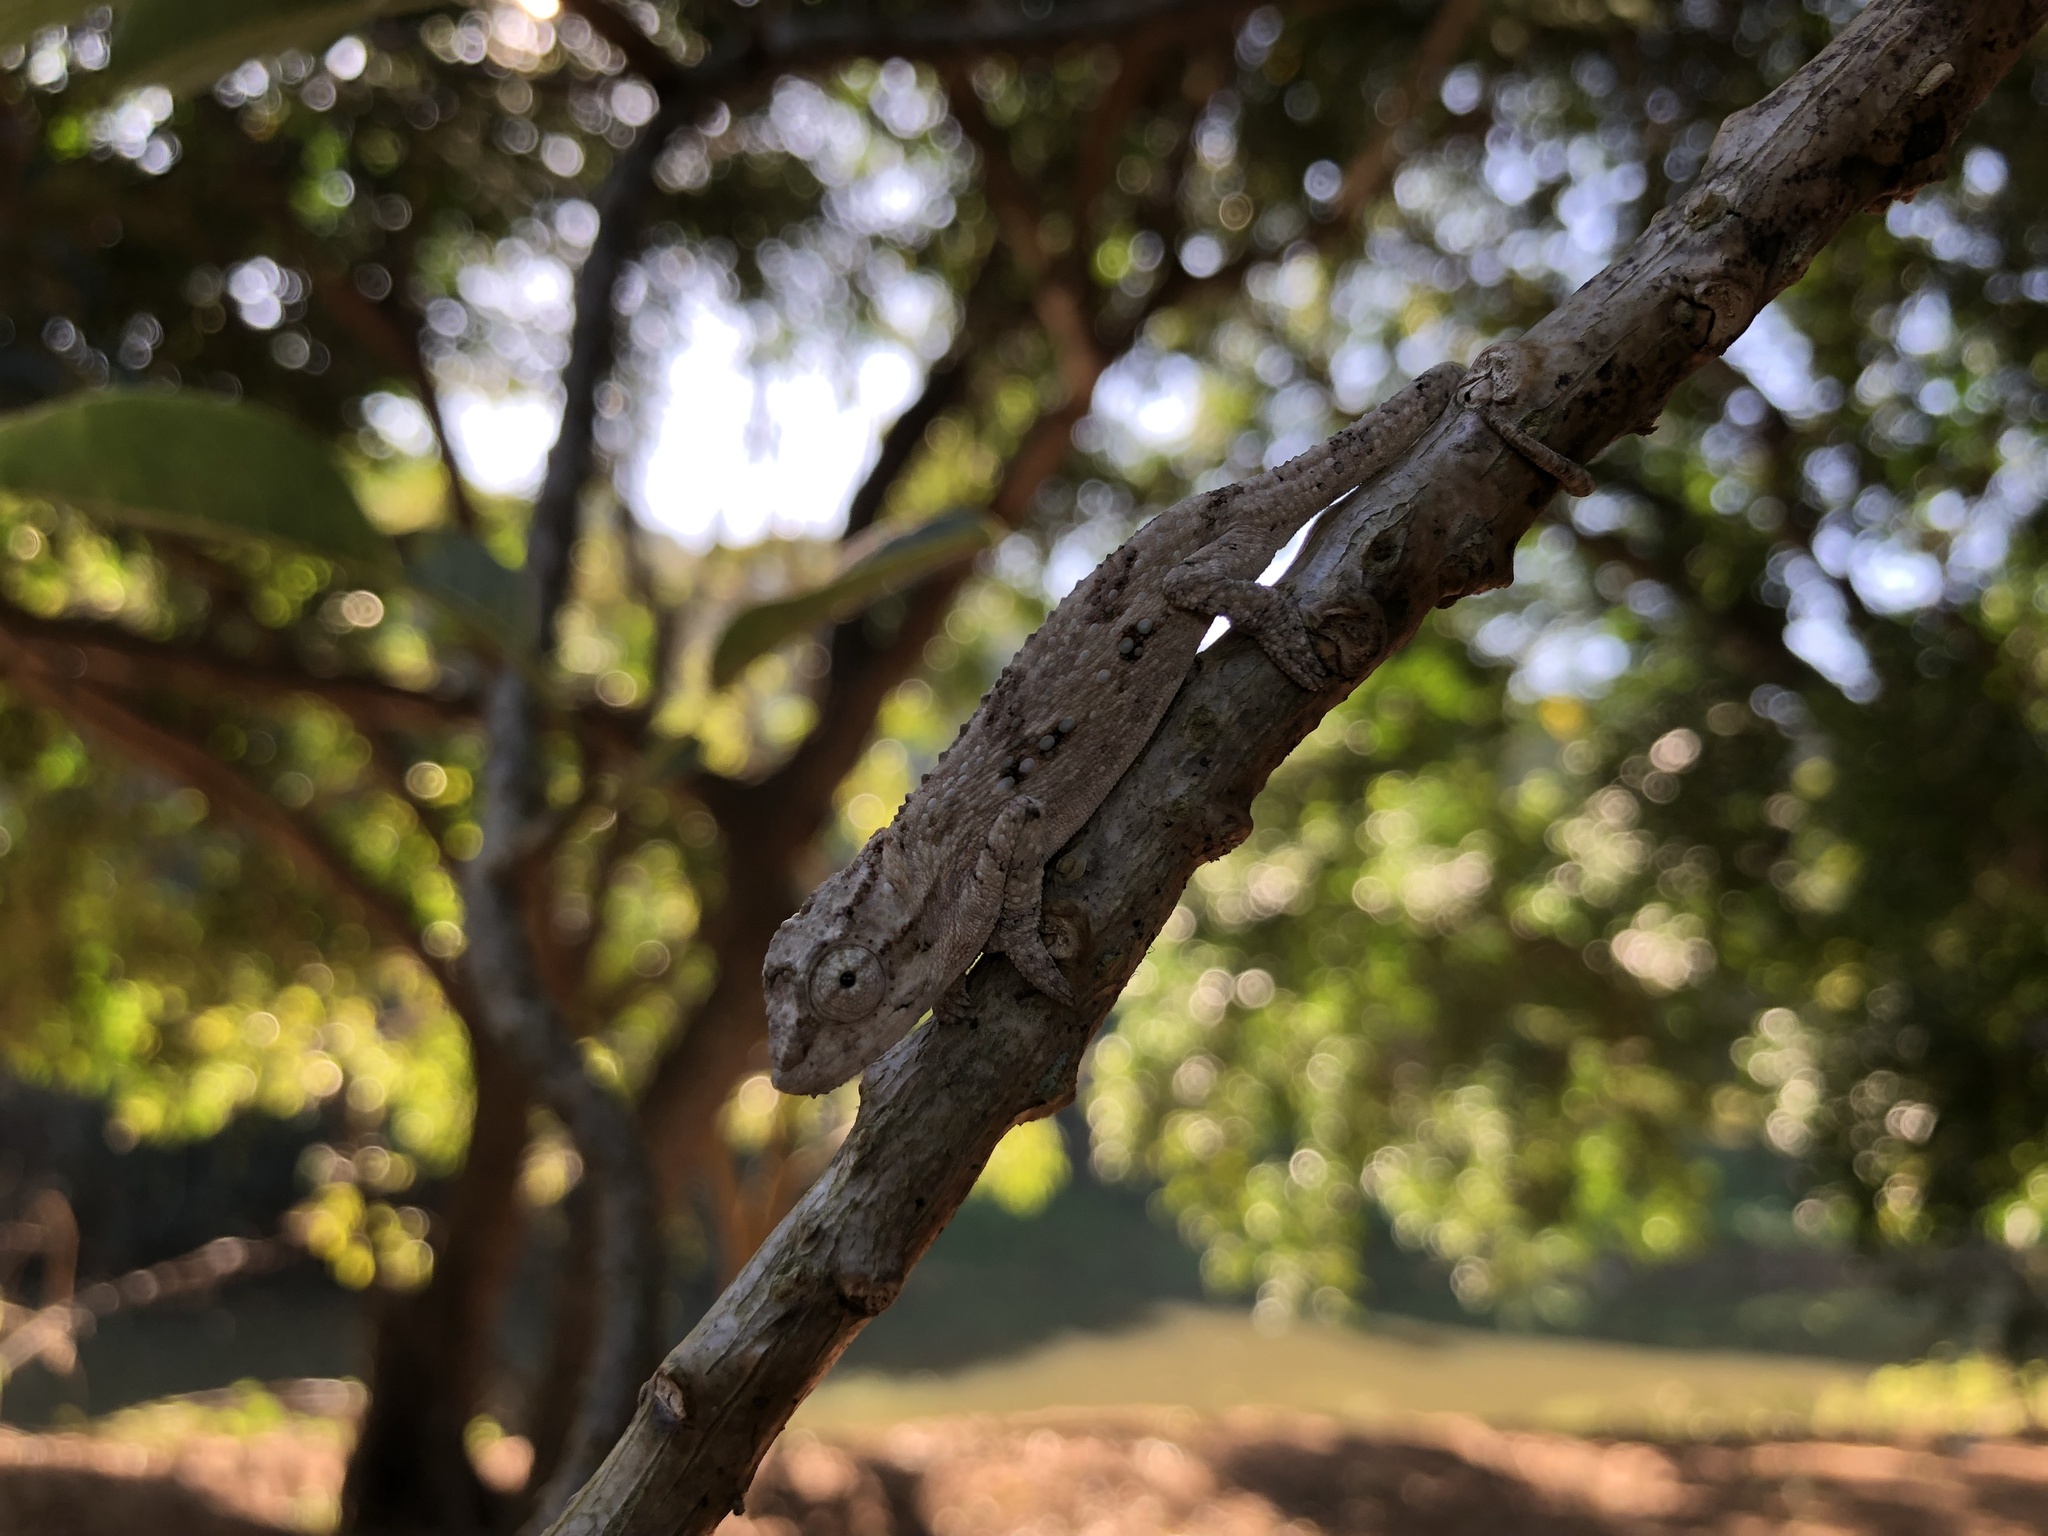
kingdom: Animalia
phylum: Chordata
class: Squamata
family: Chamaeleonidae
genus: Bradypodion
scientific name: Bradypodion melanocephalum
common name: Black-headed dwarf chameleon
